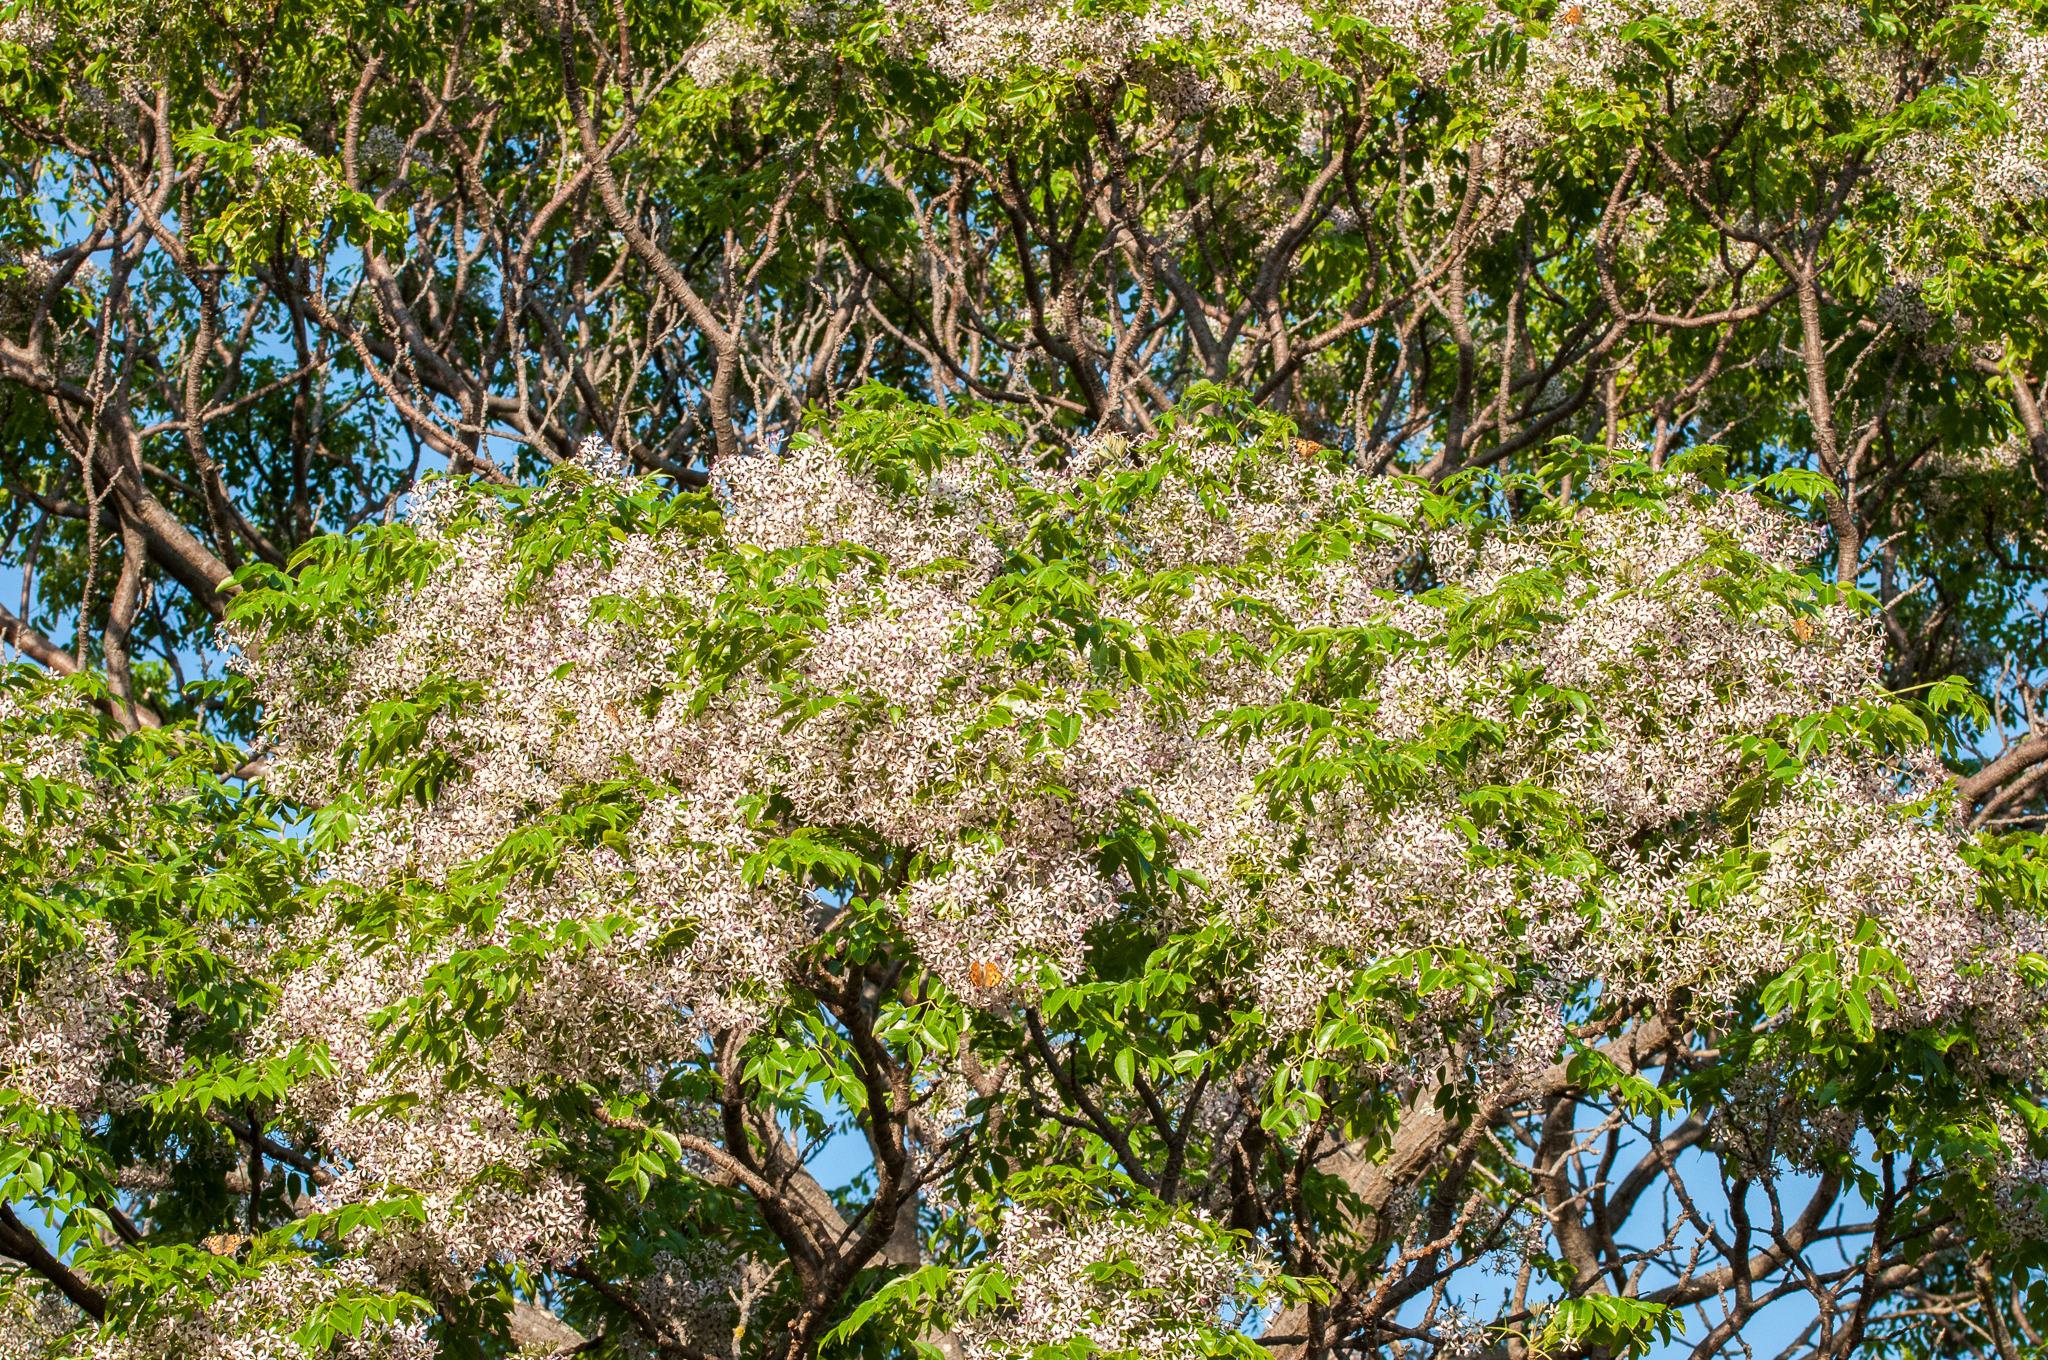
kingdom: Plantae
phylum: Tracheophyta
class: Magnoliopsida
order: Sapindales
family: Meliaceae
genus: Melia
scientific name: Melia azedarach
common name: Chinaberrytree
